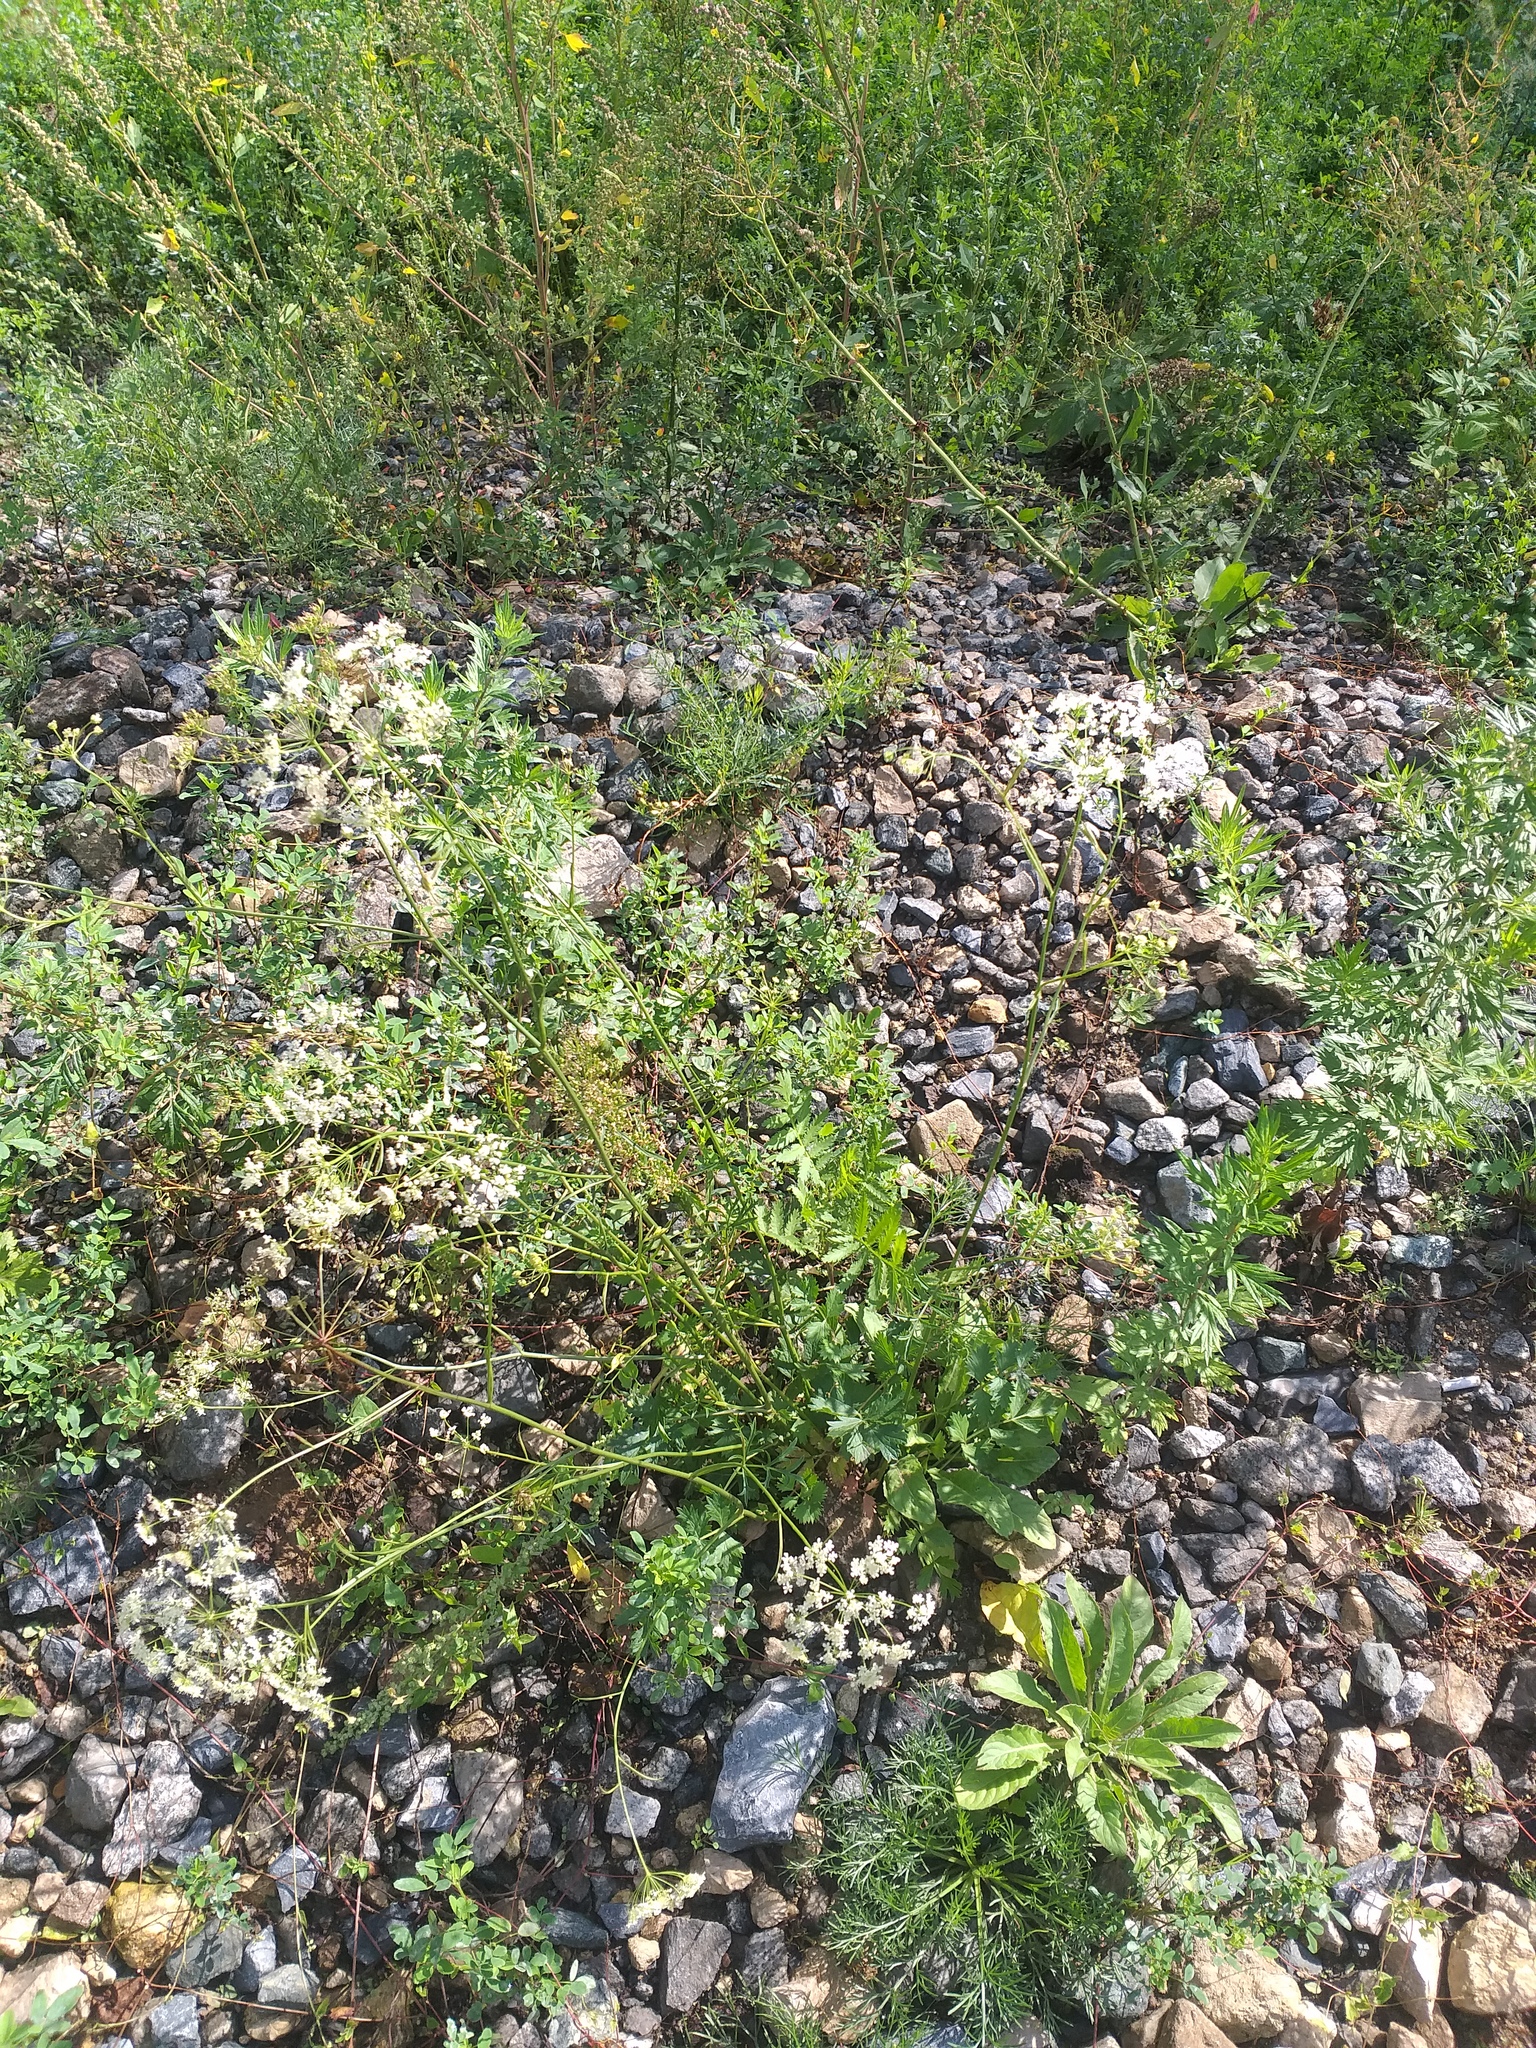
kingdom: Plantae
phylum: Tracheophyta
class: Magnoliopsida
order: Apiales
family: Apiaceae
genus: Pimpinella
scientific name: Pimpinella saxifraga
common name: Burnet-saxifrage
